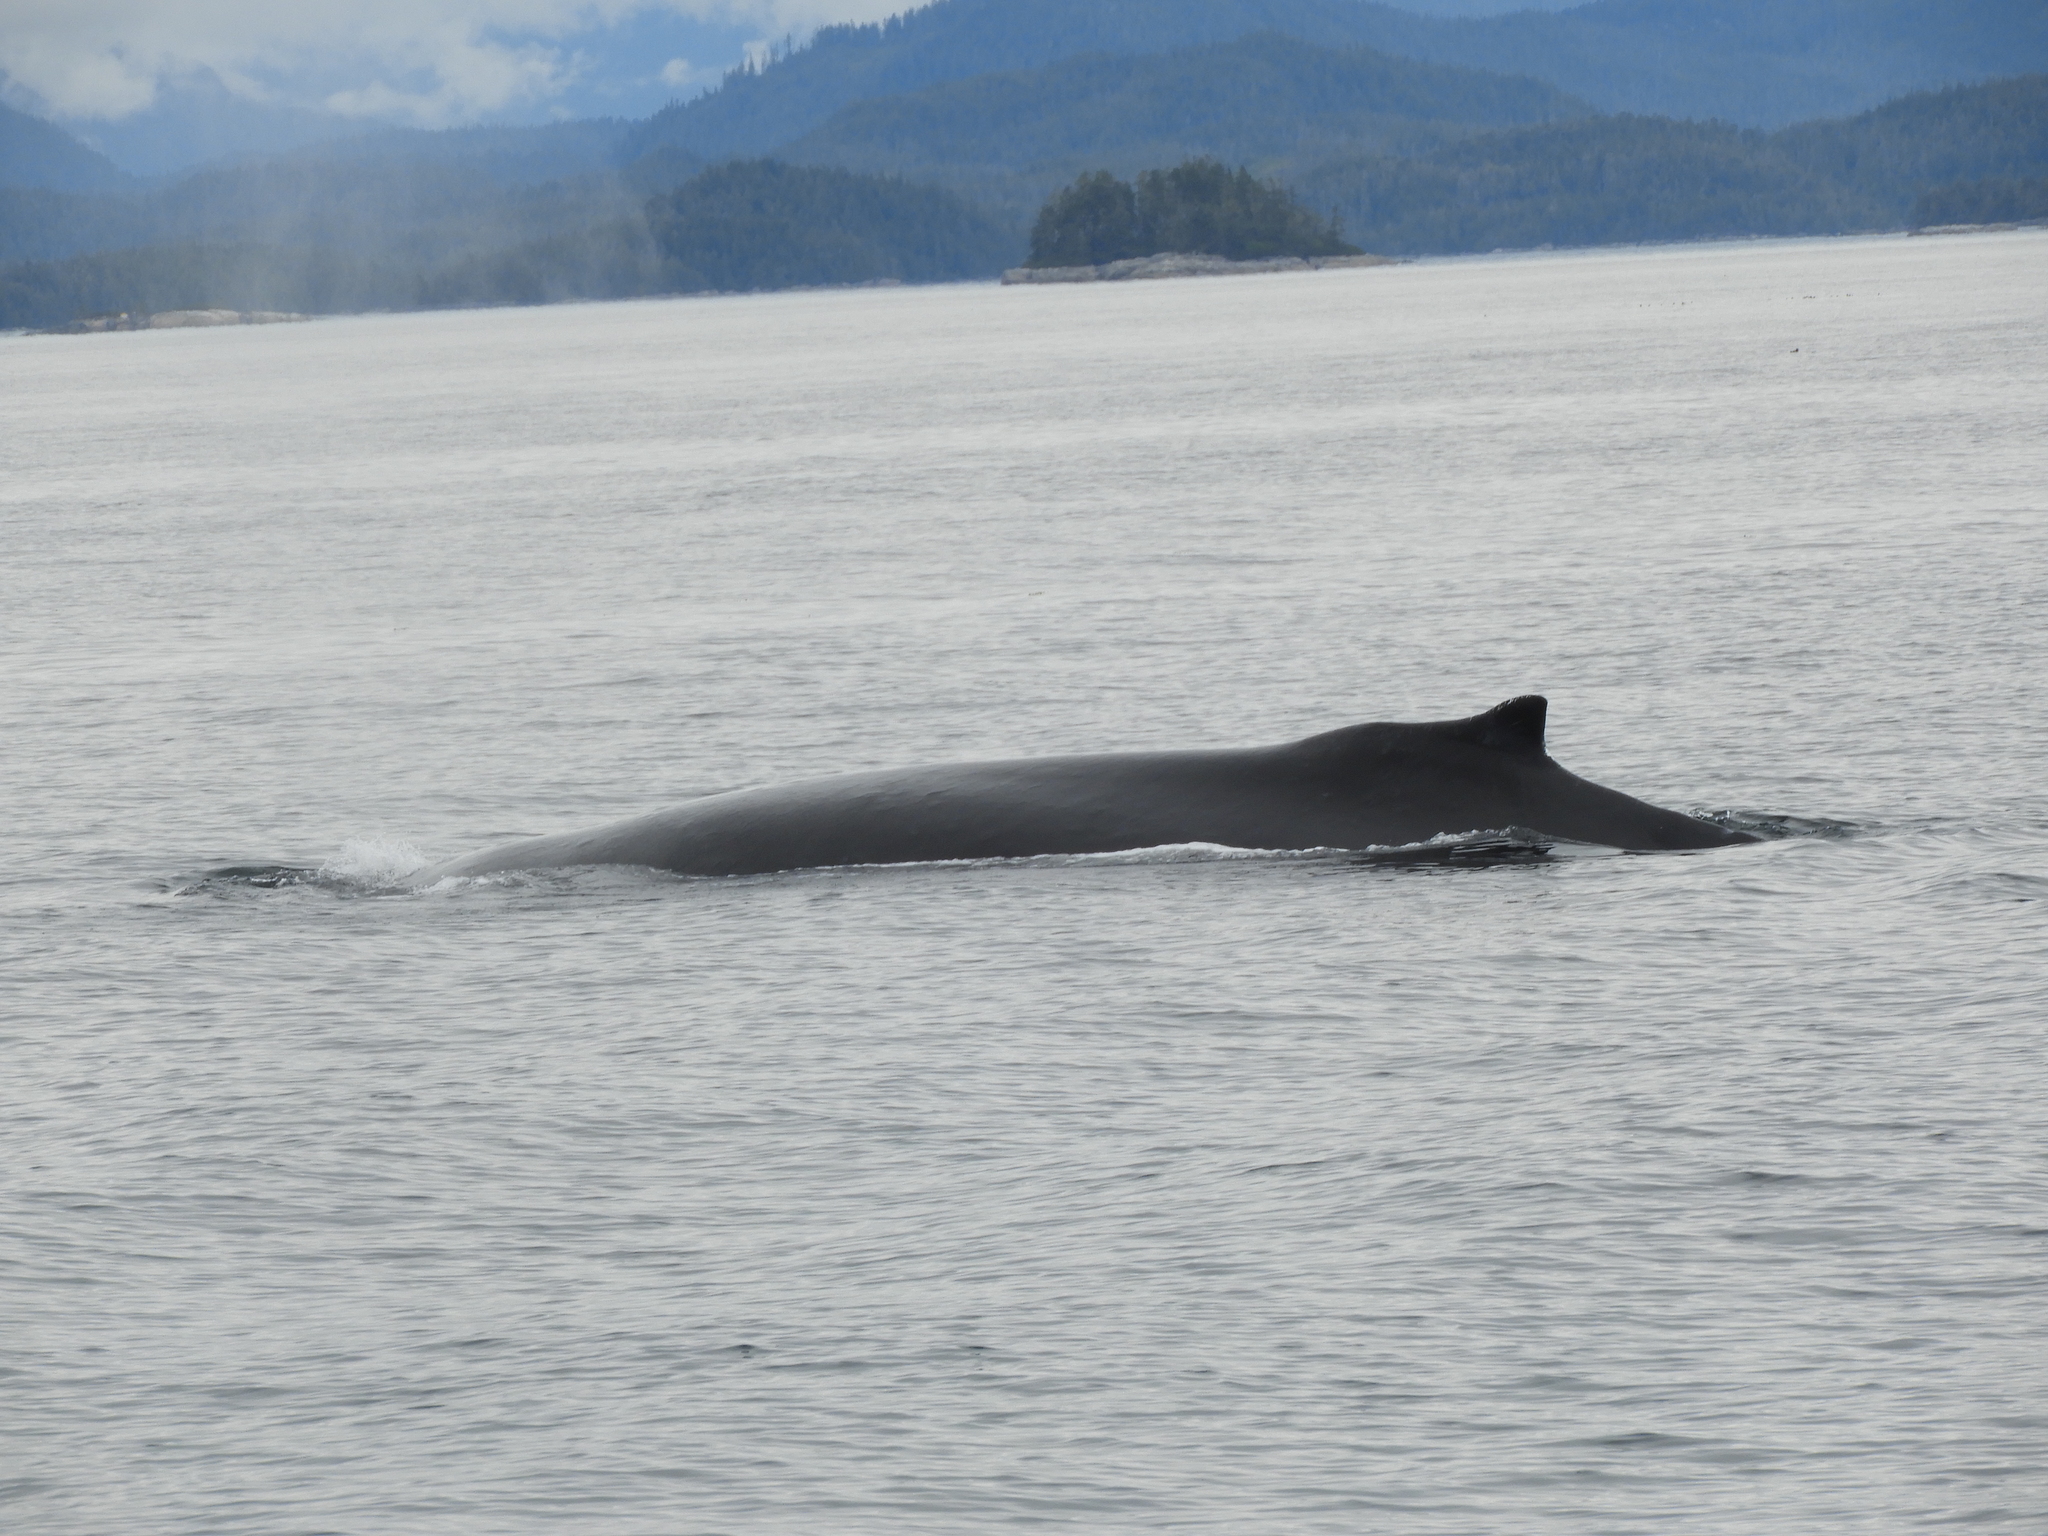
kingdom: Animalia
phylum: Chordata
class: Mammalia
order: Cetacea
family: Balaenopteridae
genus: Megaptera
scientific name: Megaptera novaeangliae
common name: Humpback whale
